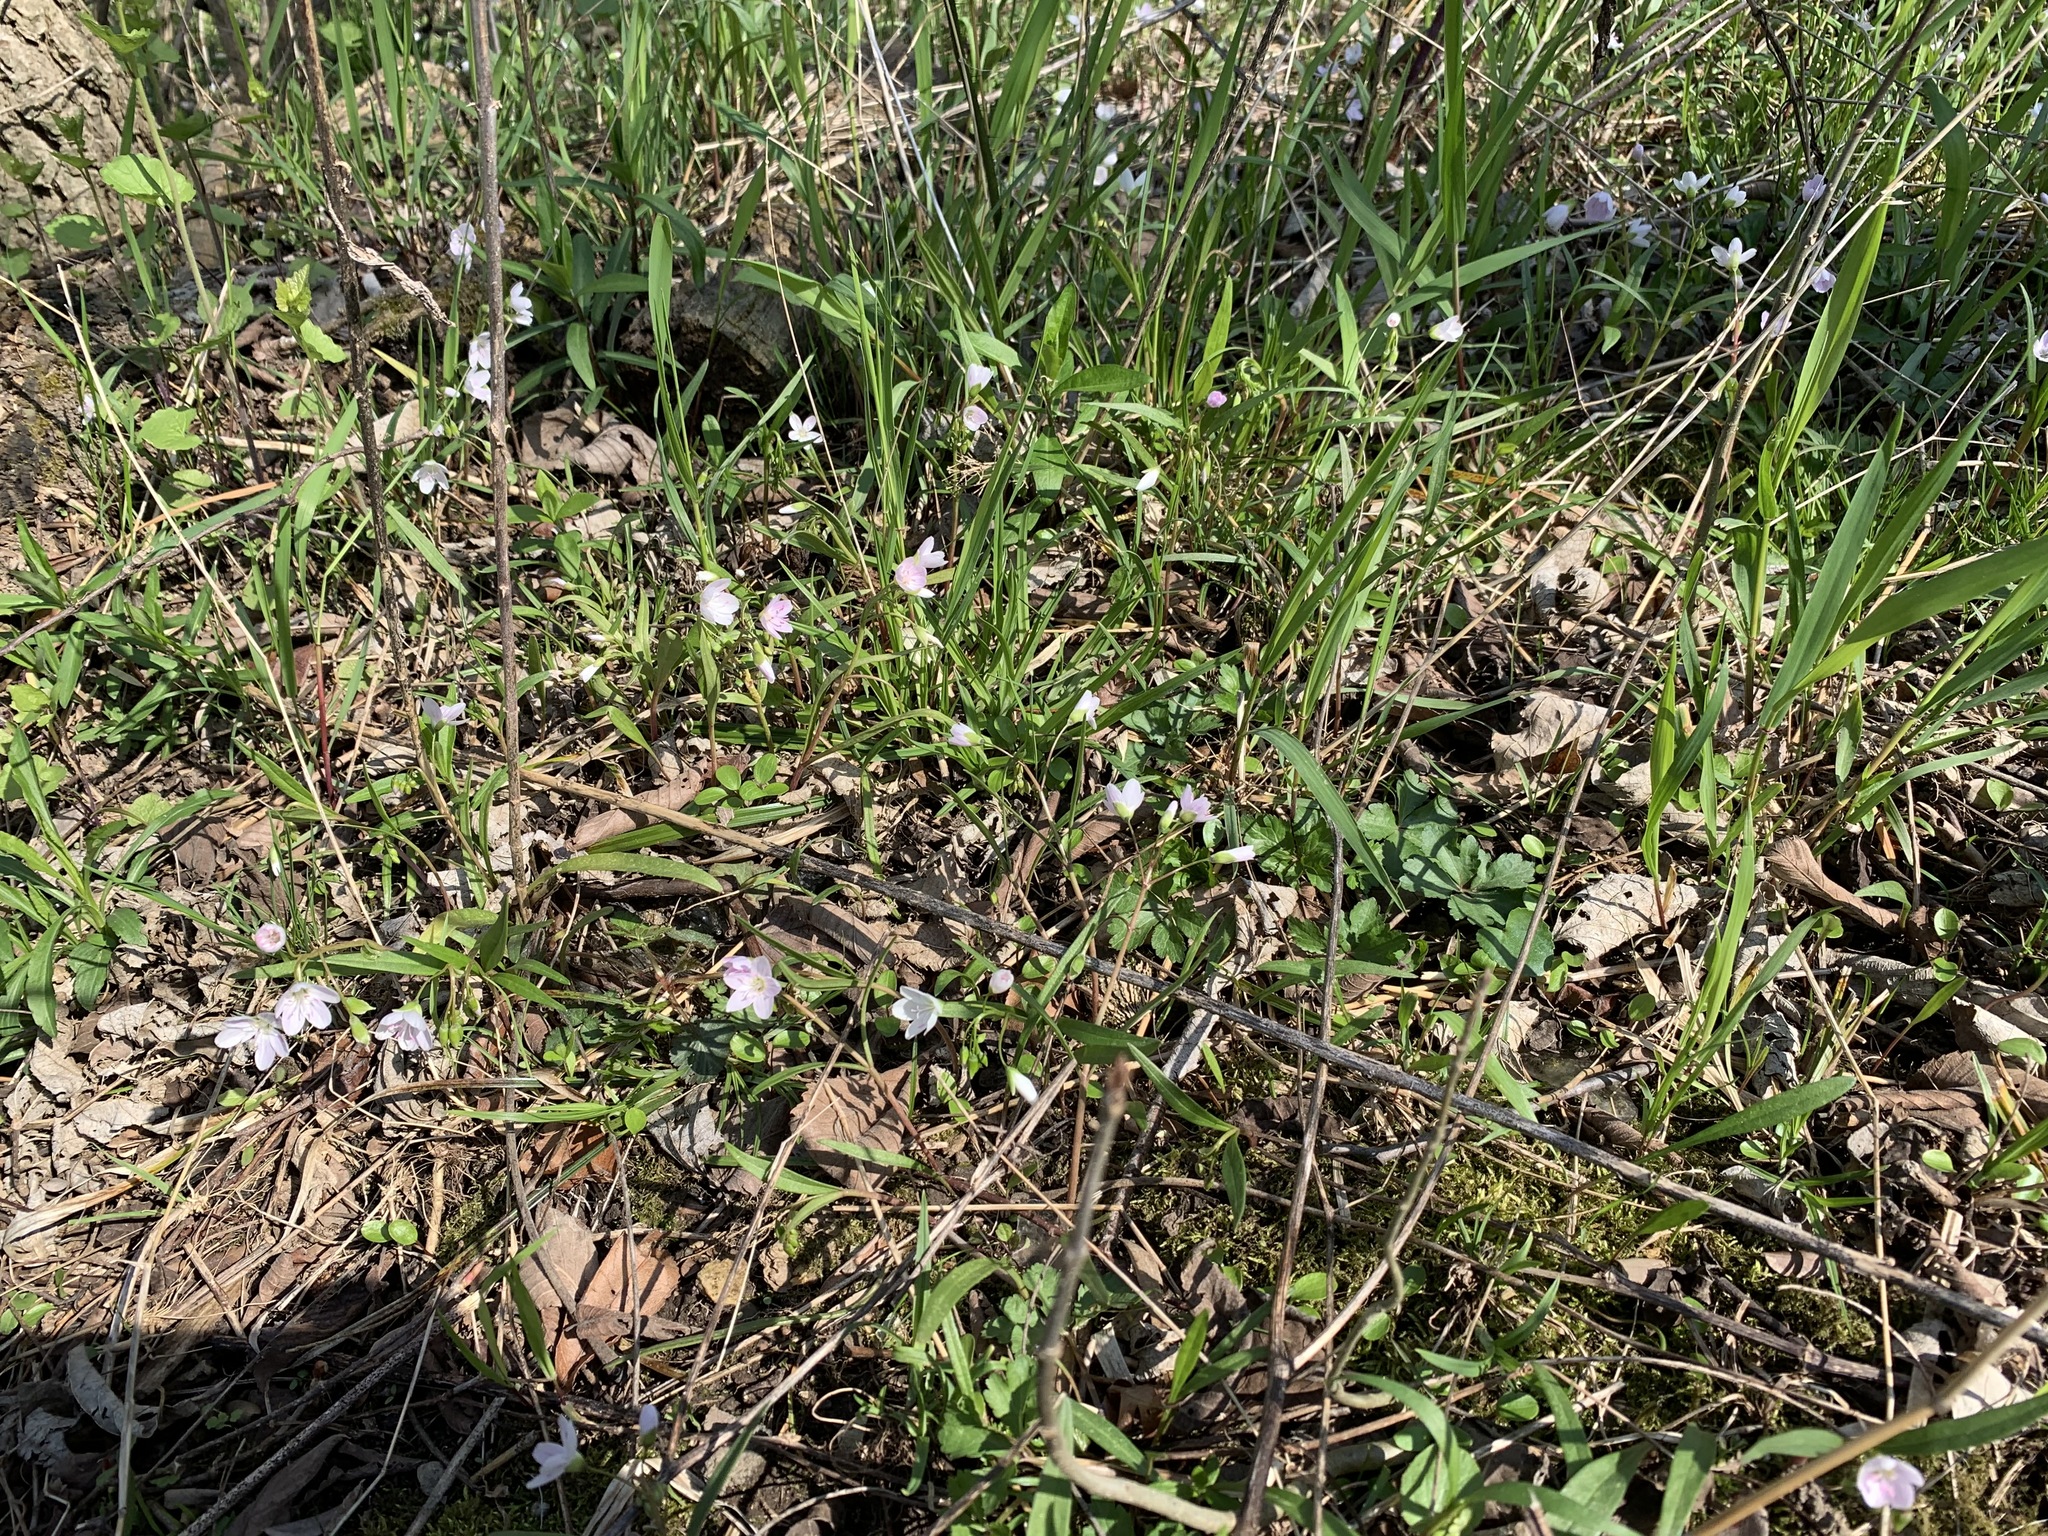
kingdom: Plantae
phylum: Tracheophyta
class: Magnoliopsida
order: Caryophyllales
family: Montiaceae
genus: Claytonia
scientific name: Claytonia virginica
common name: Virginia springbeauty
